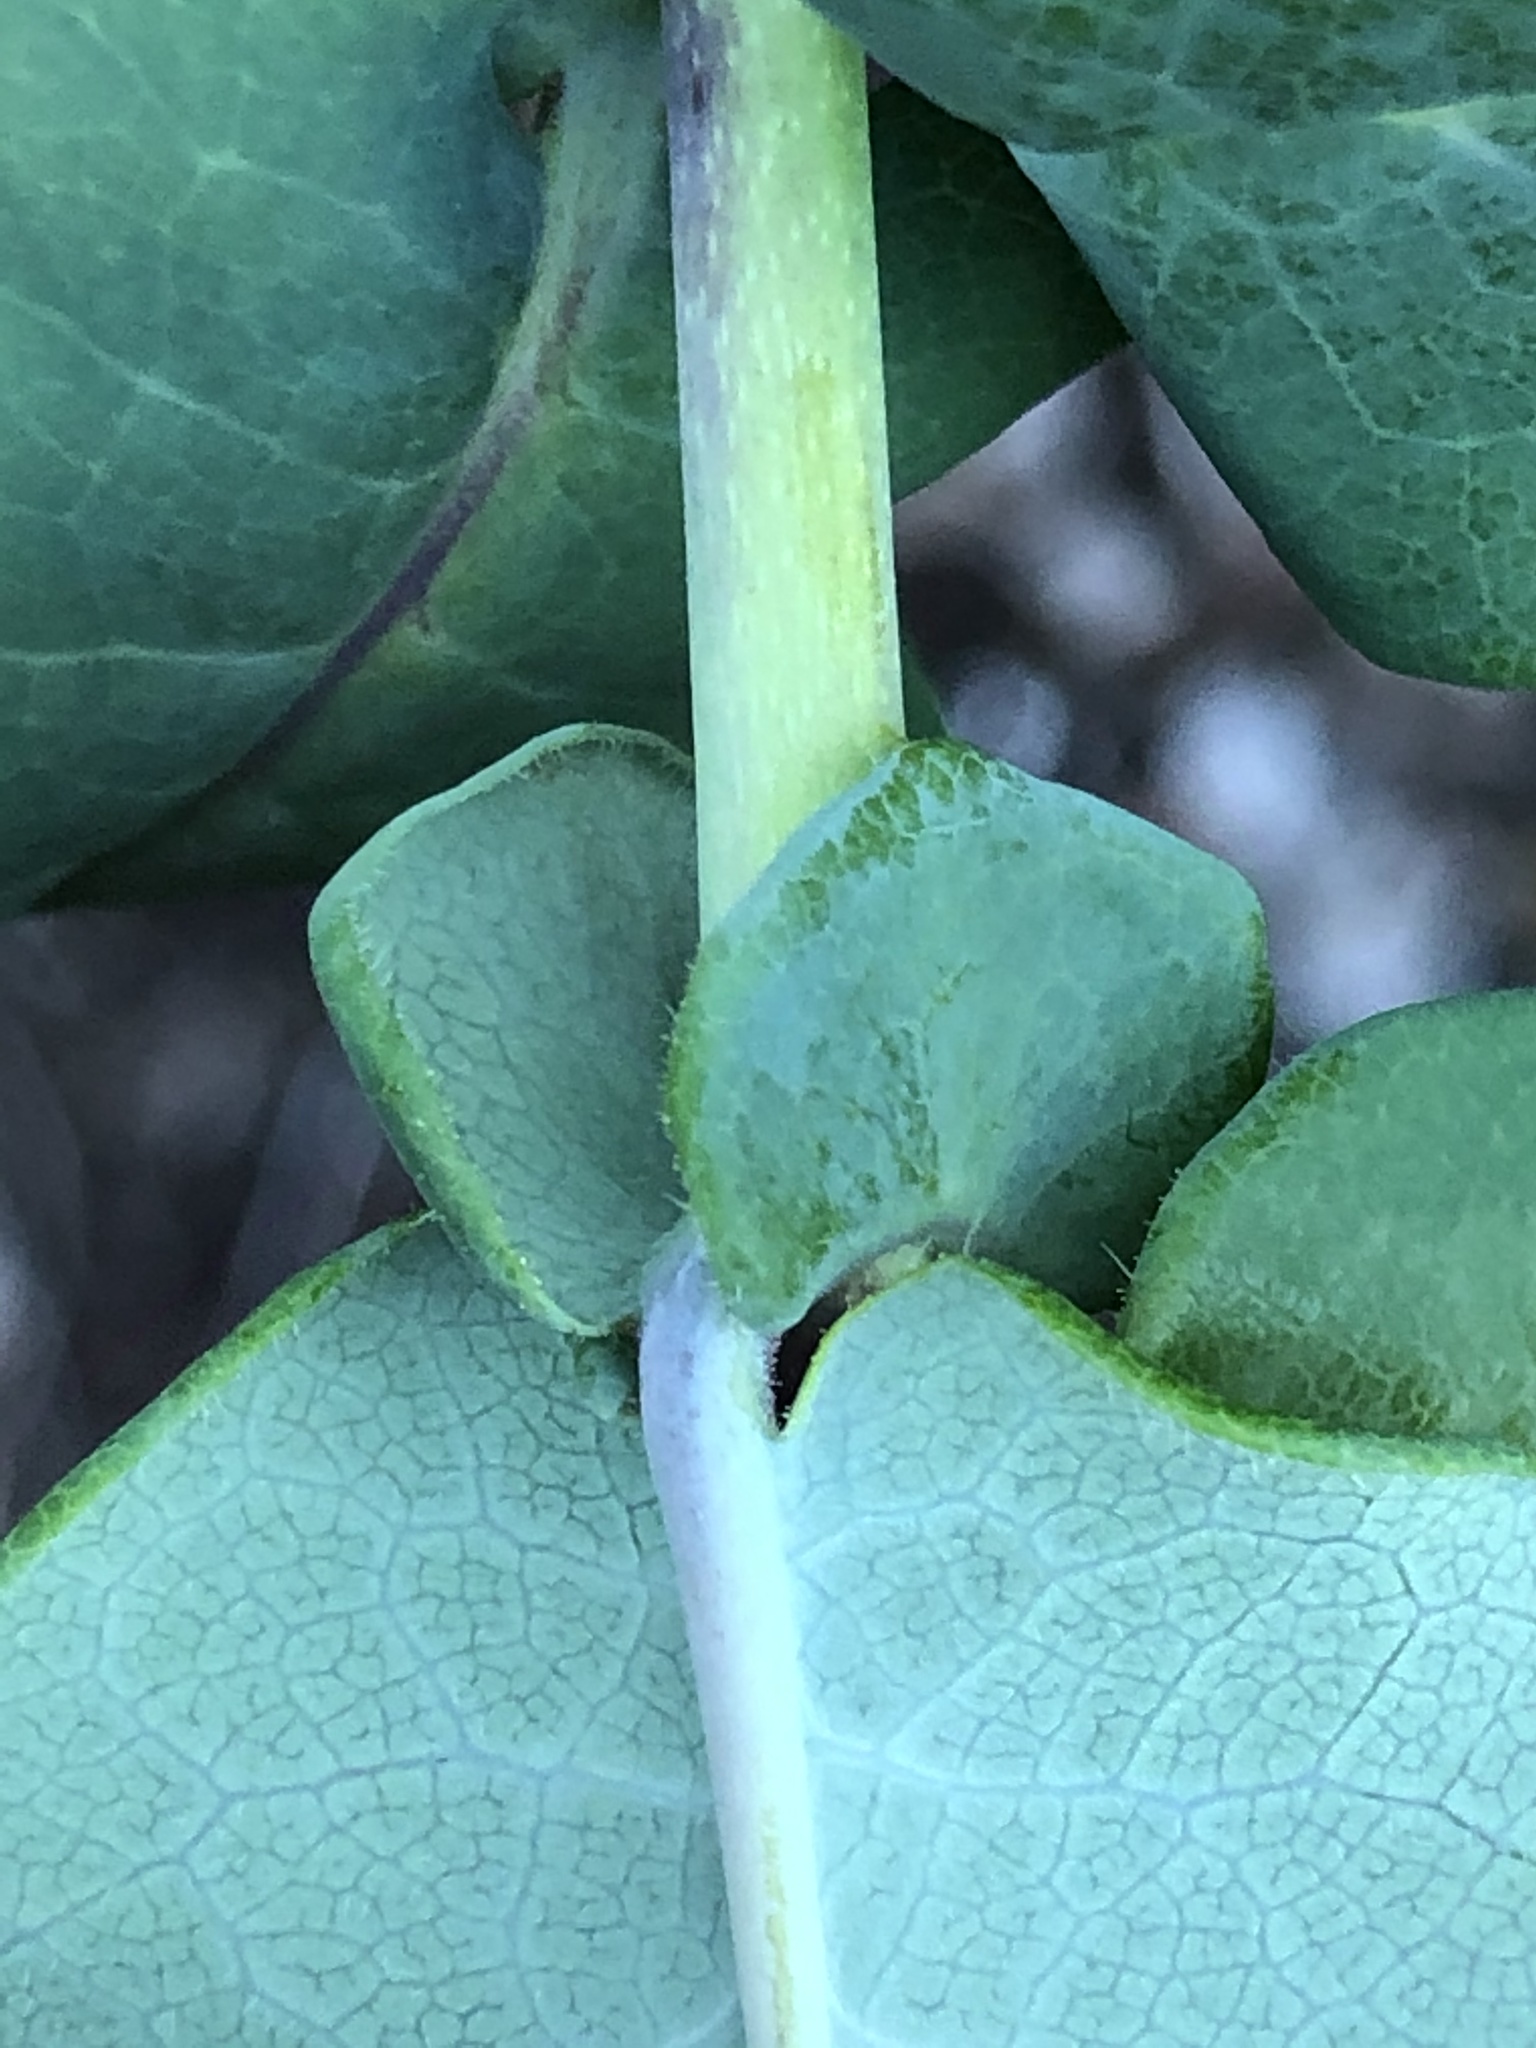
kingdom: Plantae
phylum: Tracheophyta
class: Magnoliopsida
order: Dipsacales
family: Caprifoliaceae
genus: Lonicera
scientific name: Lonicera hispidula
